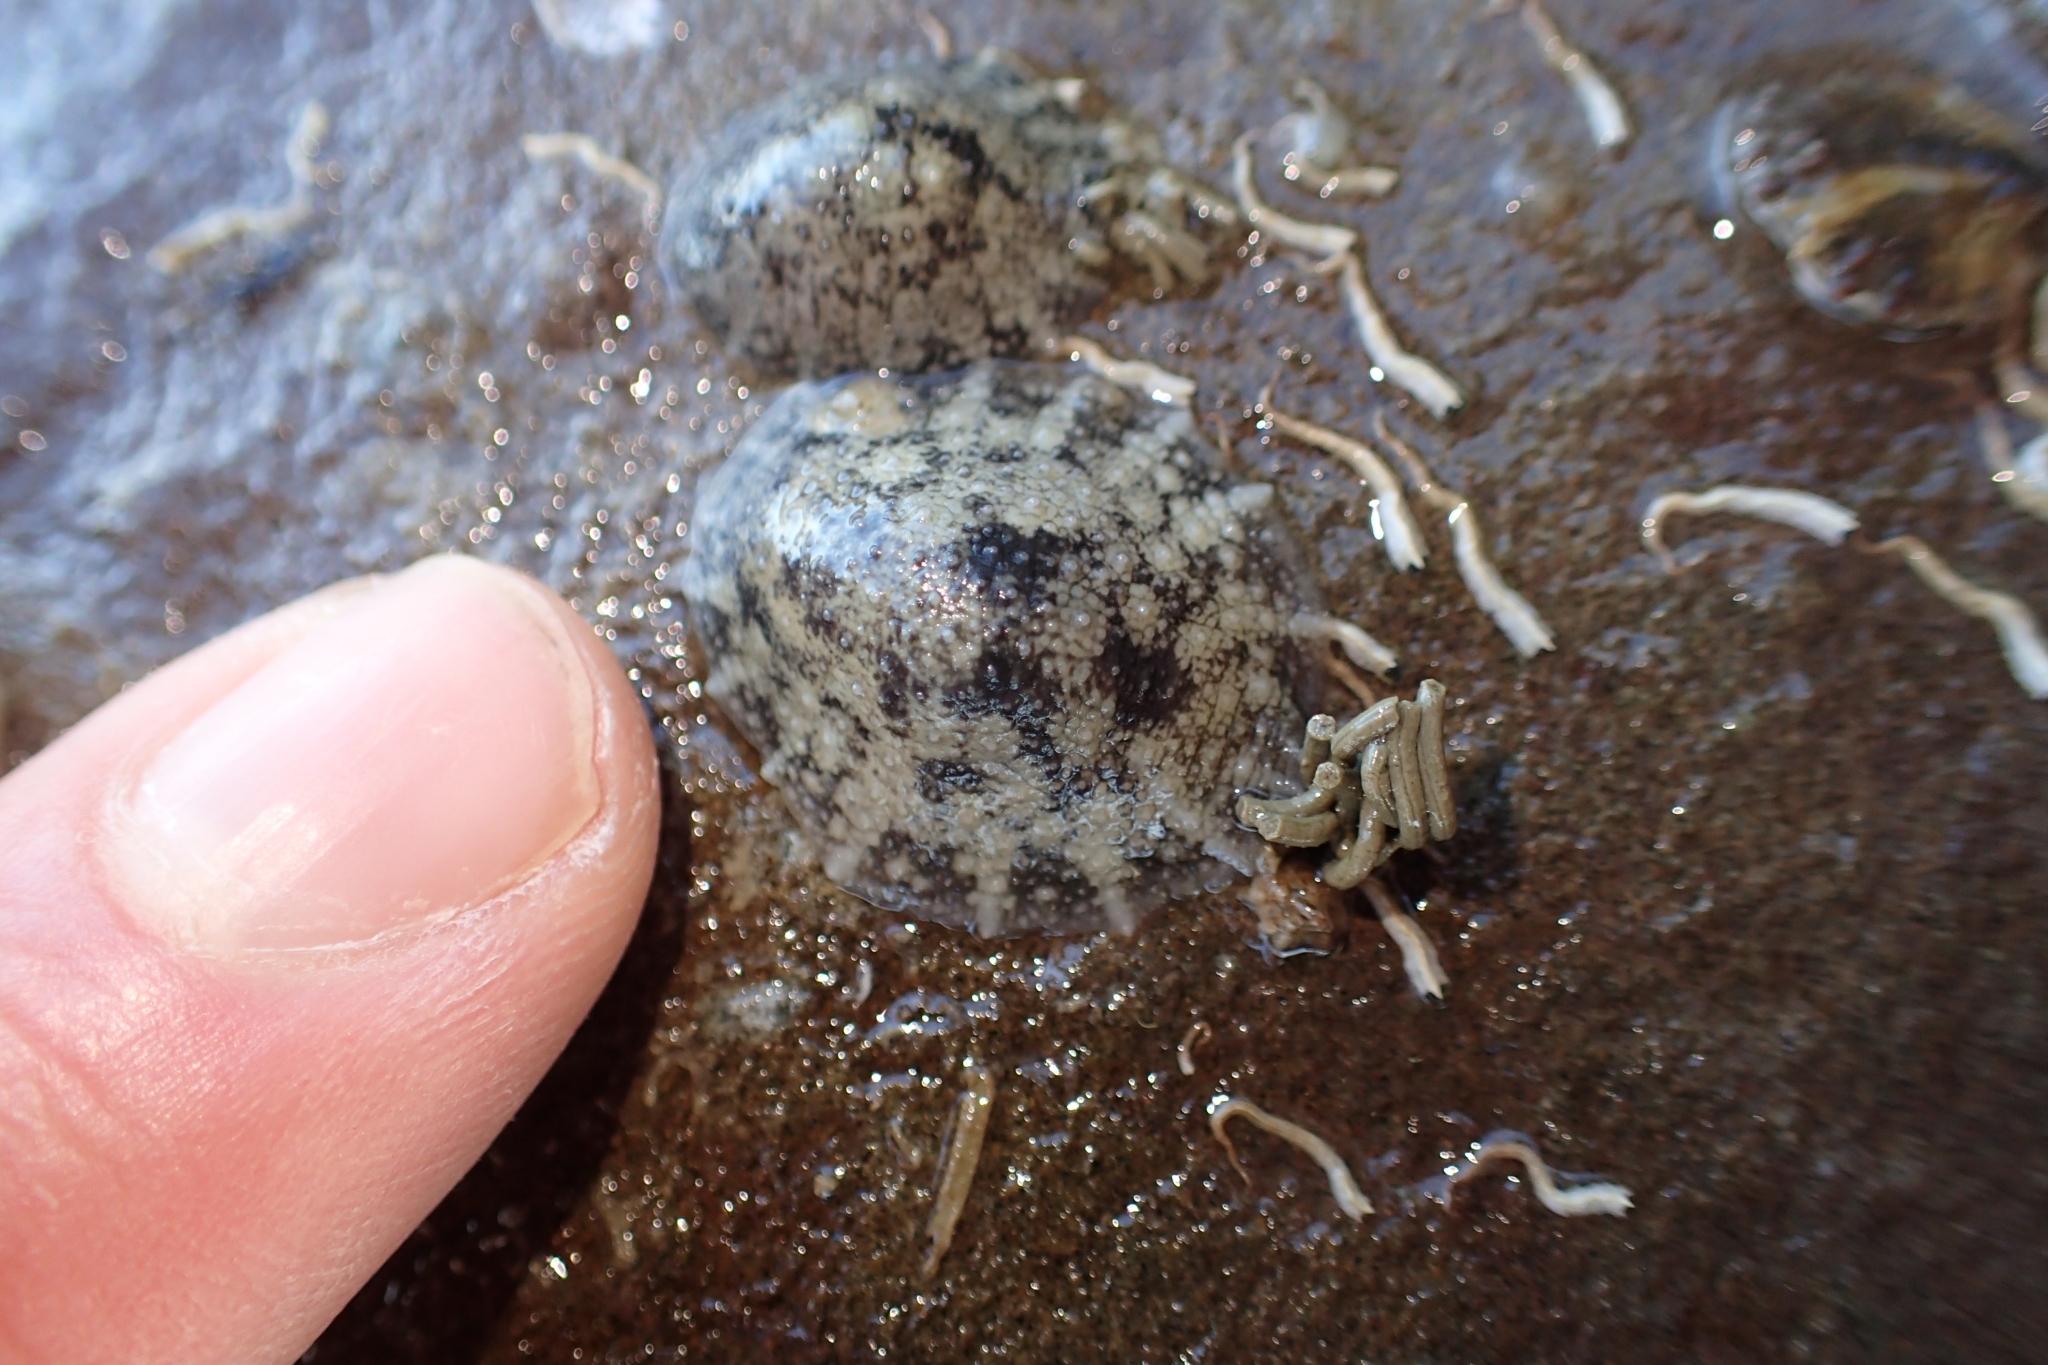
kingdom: Animalia
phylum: Mollusca
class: Gastropoda
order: Systellommatophora
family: Onchidiidae
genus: Onchidella
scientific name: Onchidella nigricans
